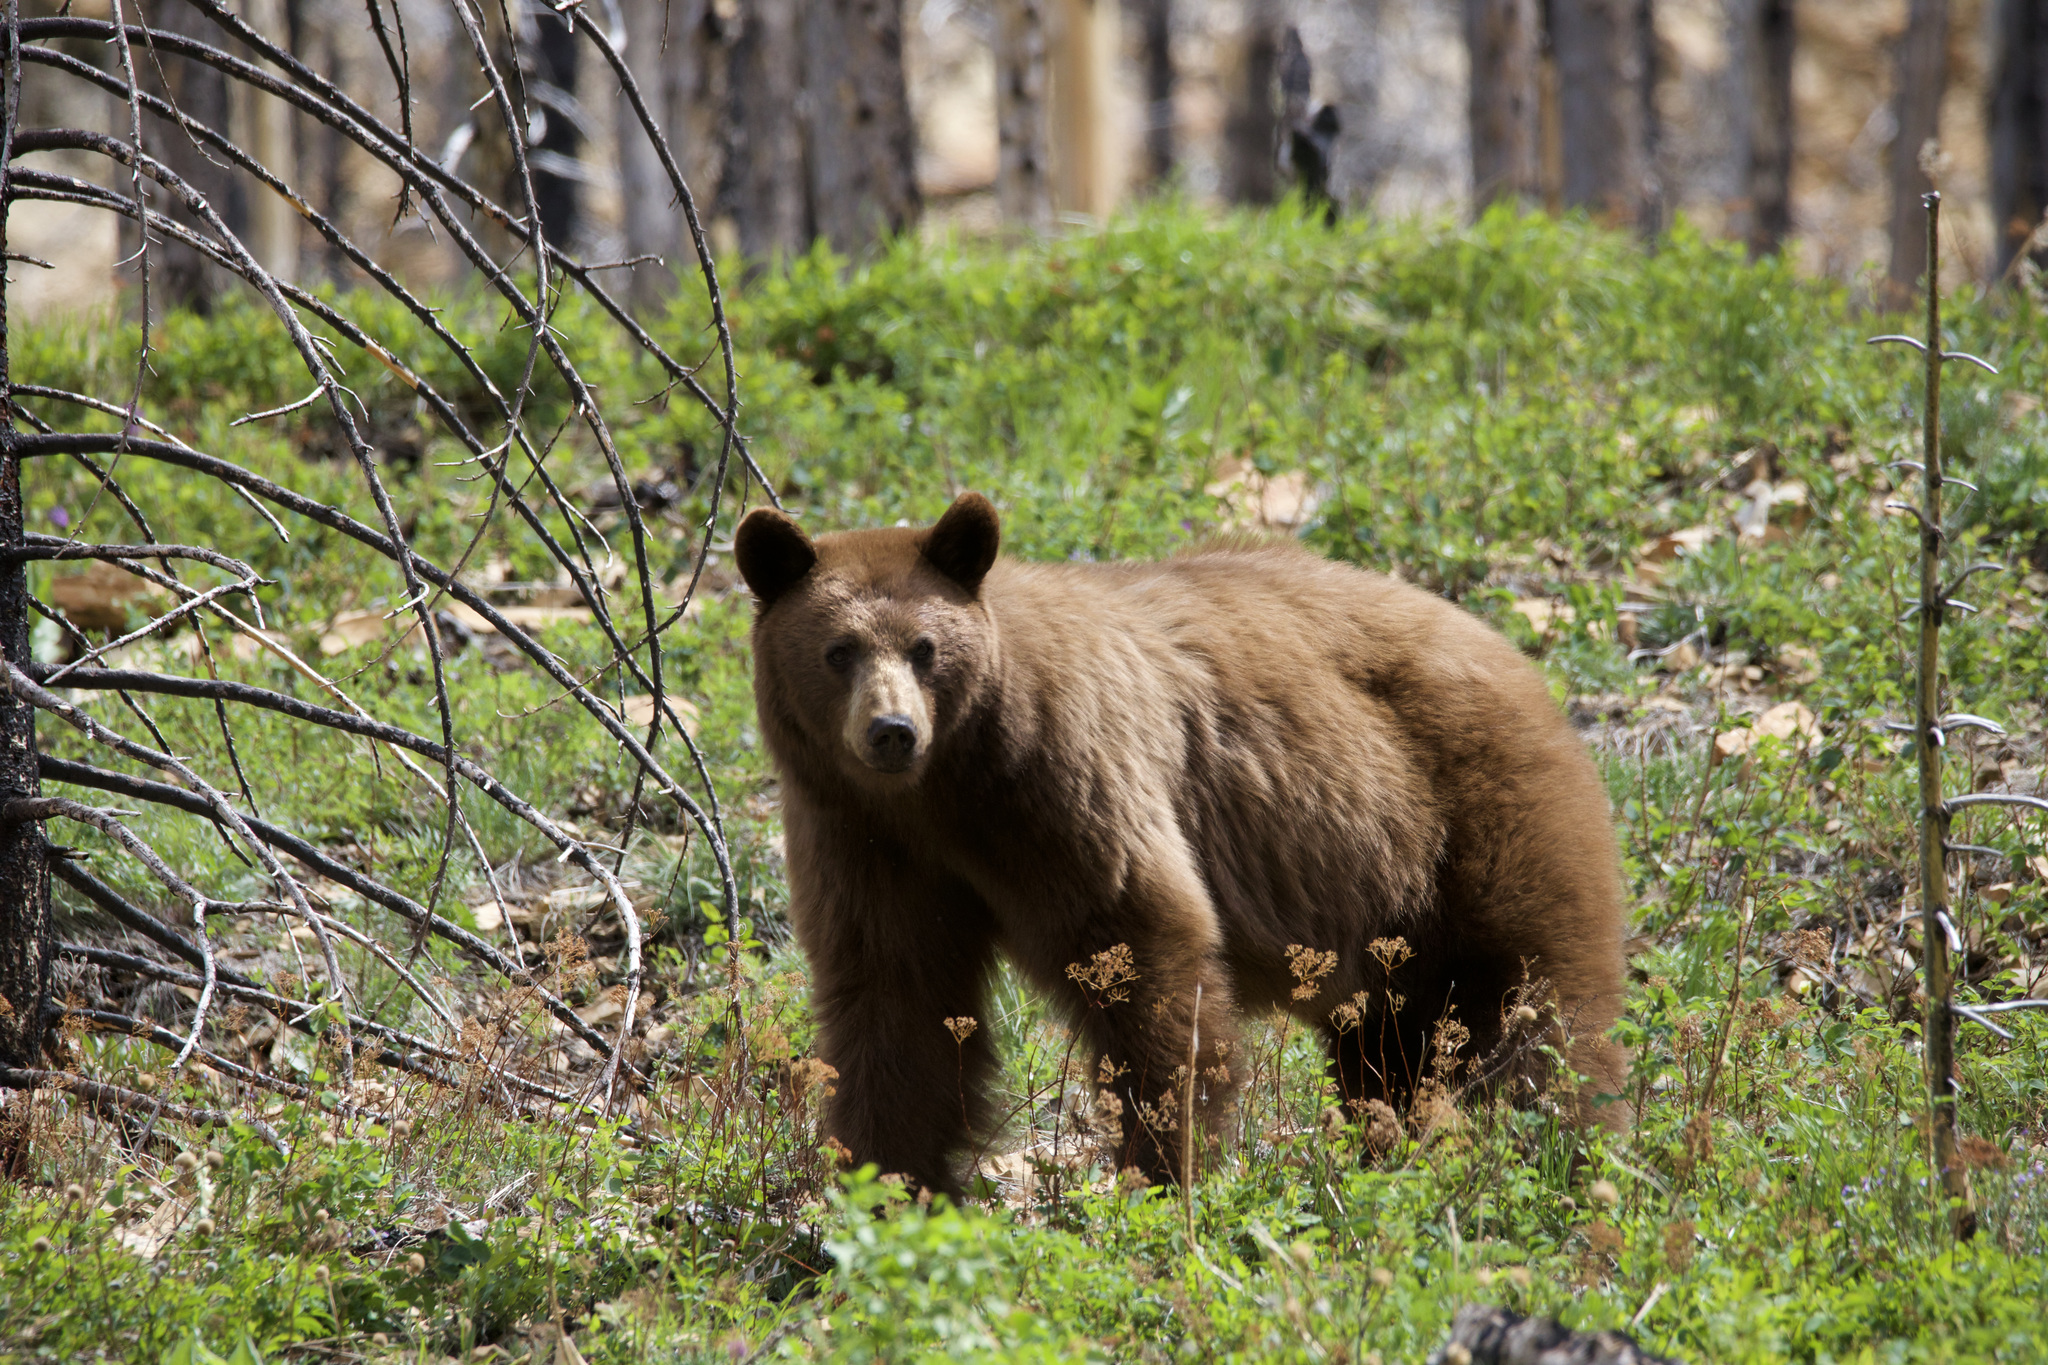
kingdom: Animalia
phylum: Chordata
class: Mammalia
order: Carnivora
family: Ursidae
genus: Ursus
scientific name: Ursus americanus
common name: American black bear
